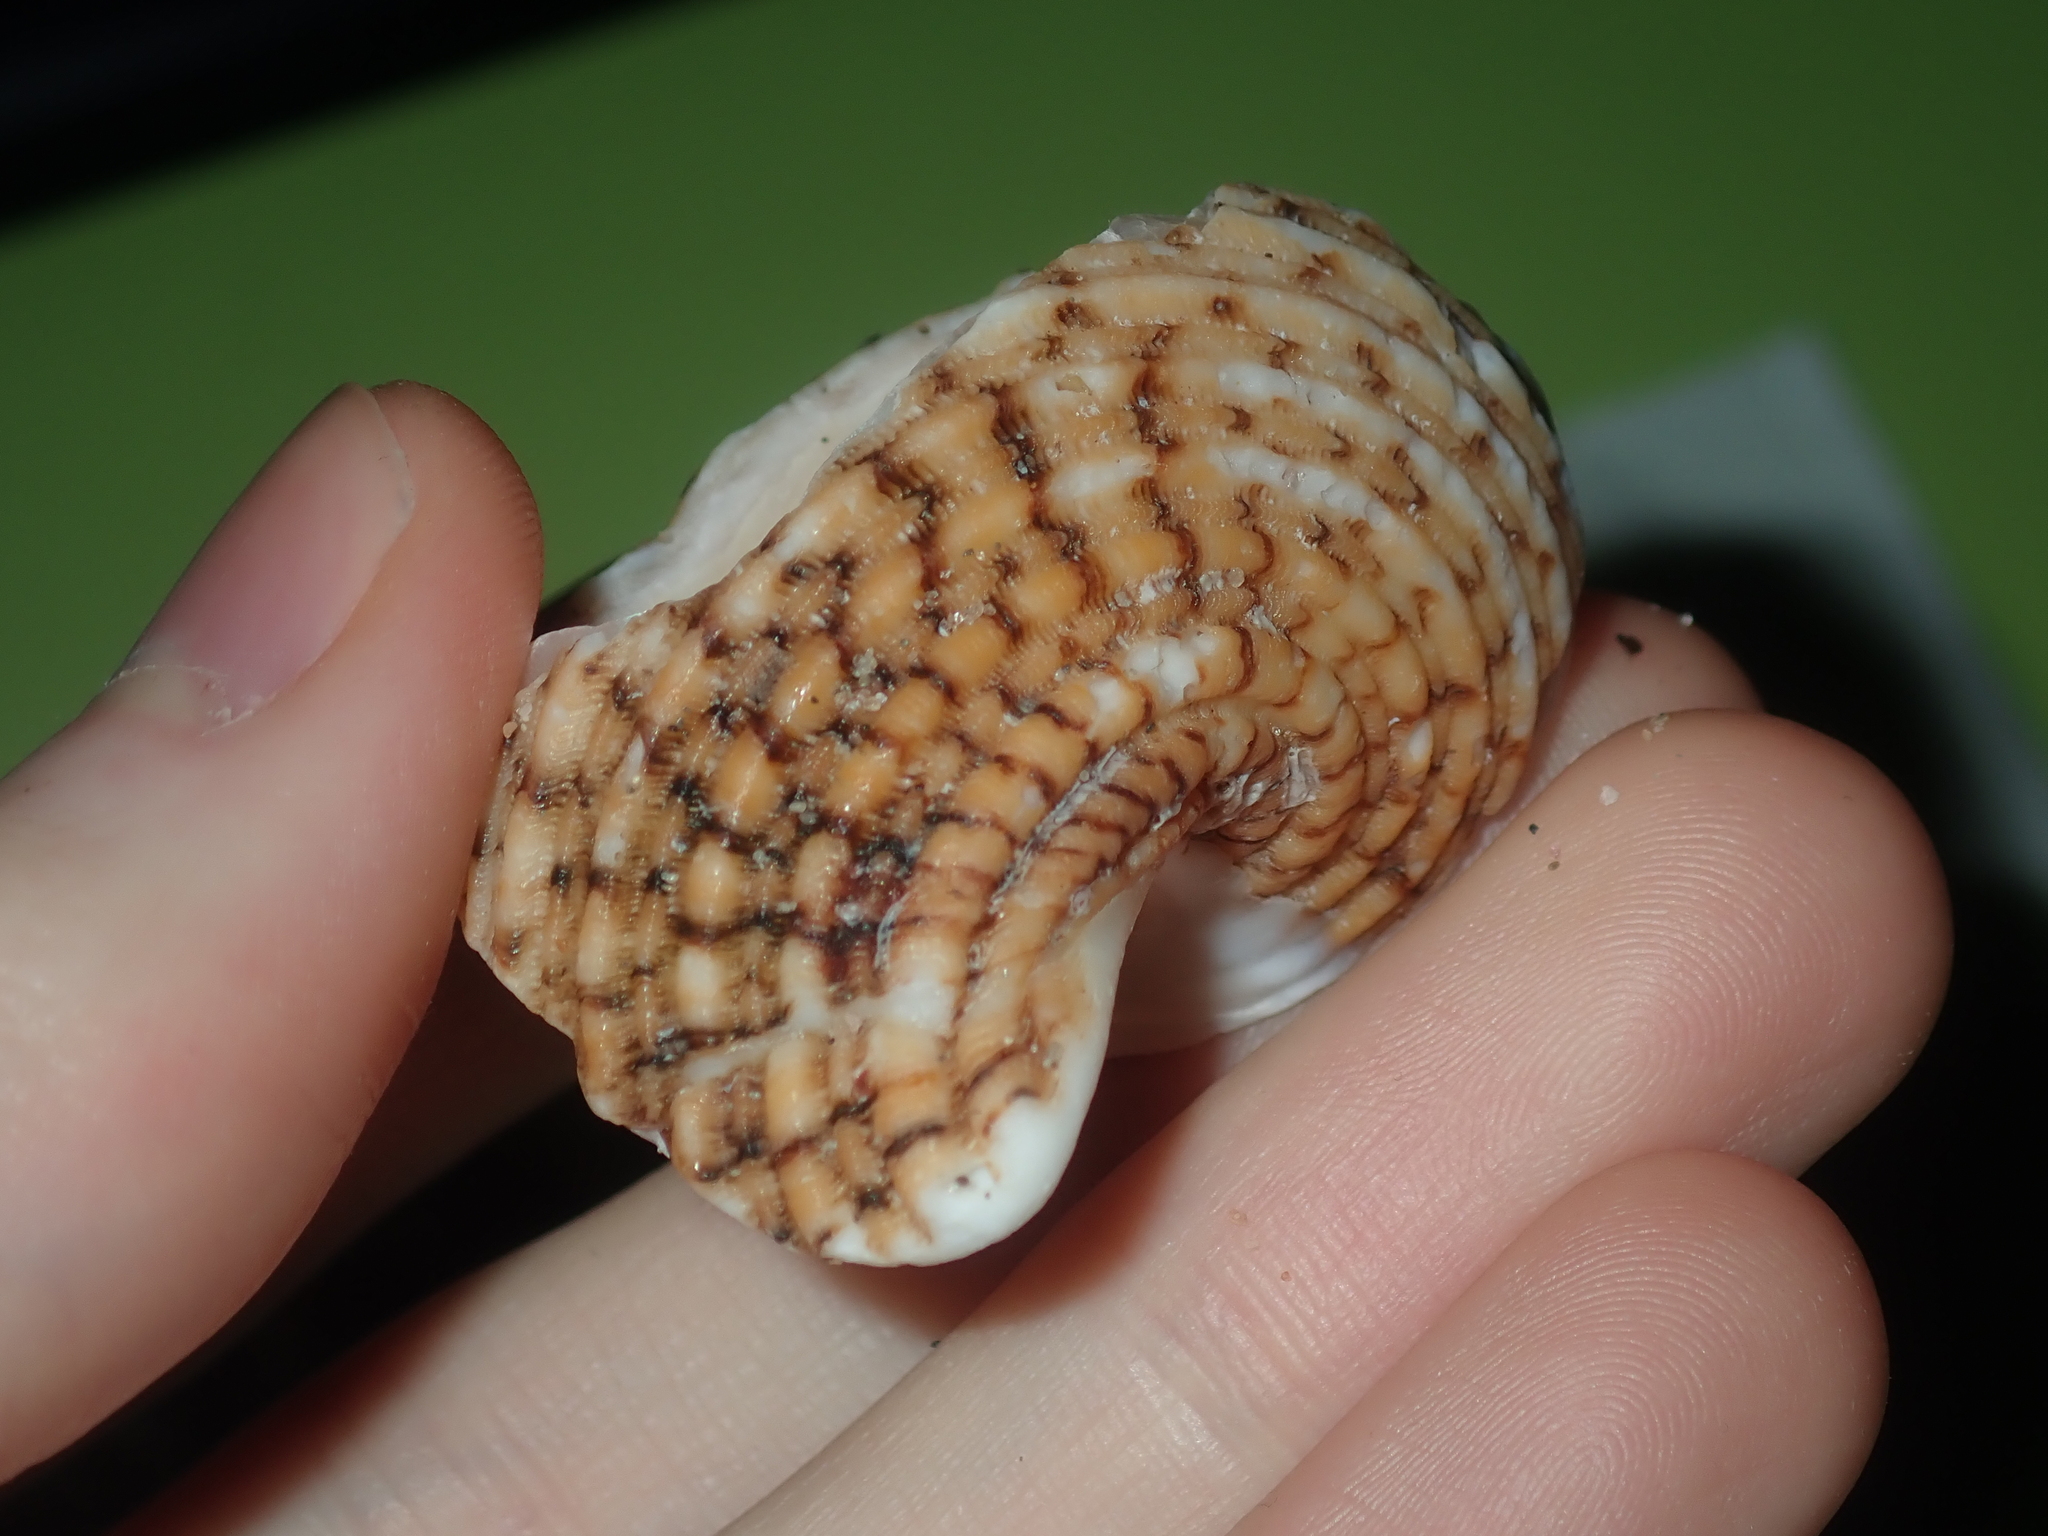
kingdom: Animalia
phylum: Mollusca
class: Gastropoda
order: Trochida
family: Turbinidae
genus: Turbo
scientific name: Turbo kenwilliamsi
